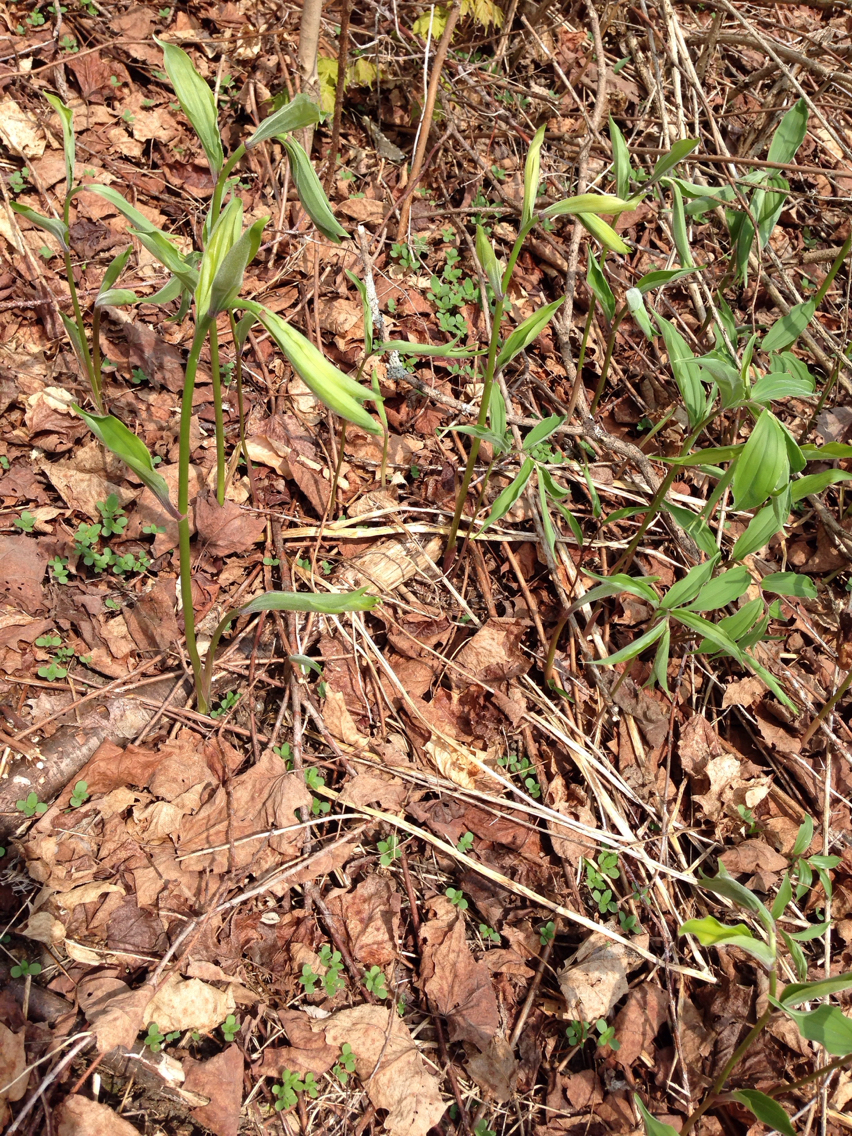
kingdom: Plantae
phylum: Tracheophyta
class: Liliopsida
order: Asparagales
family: Asparagaceae
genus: Maianthemum
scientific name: Maianthemum racemosum
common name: False spikenard
